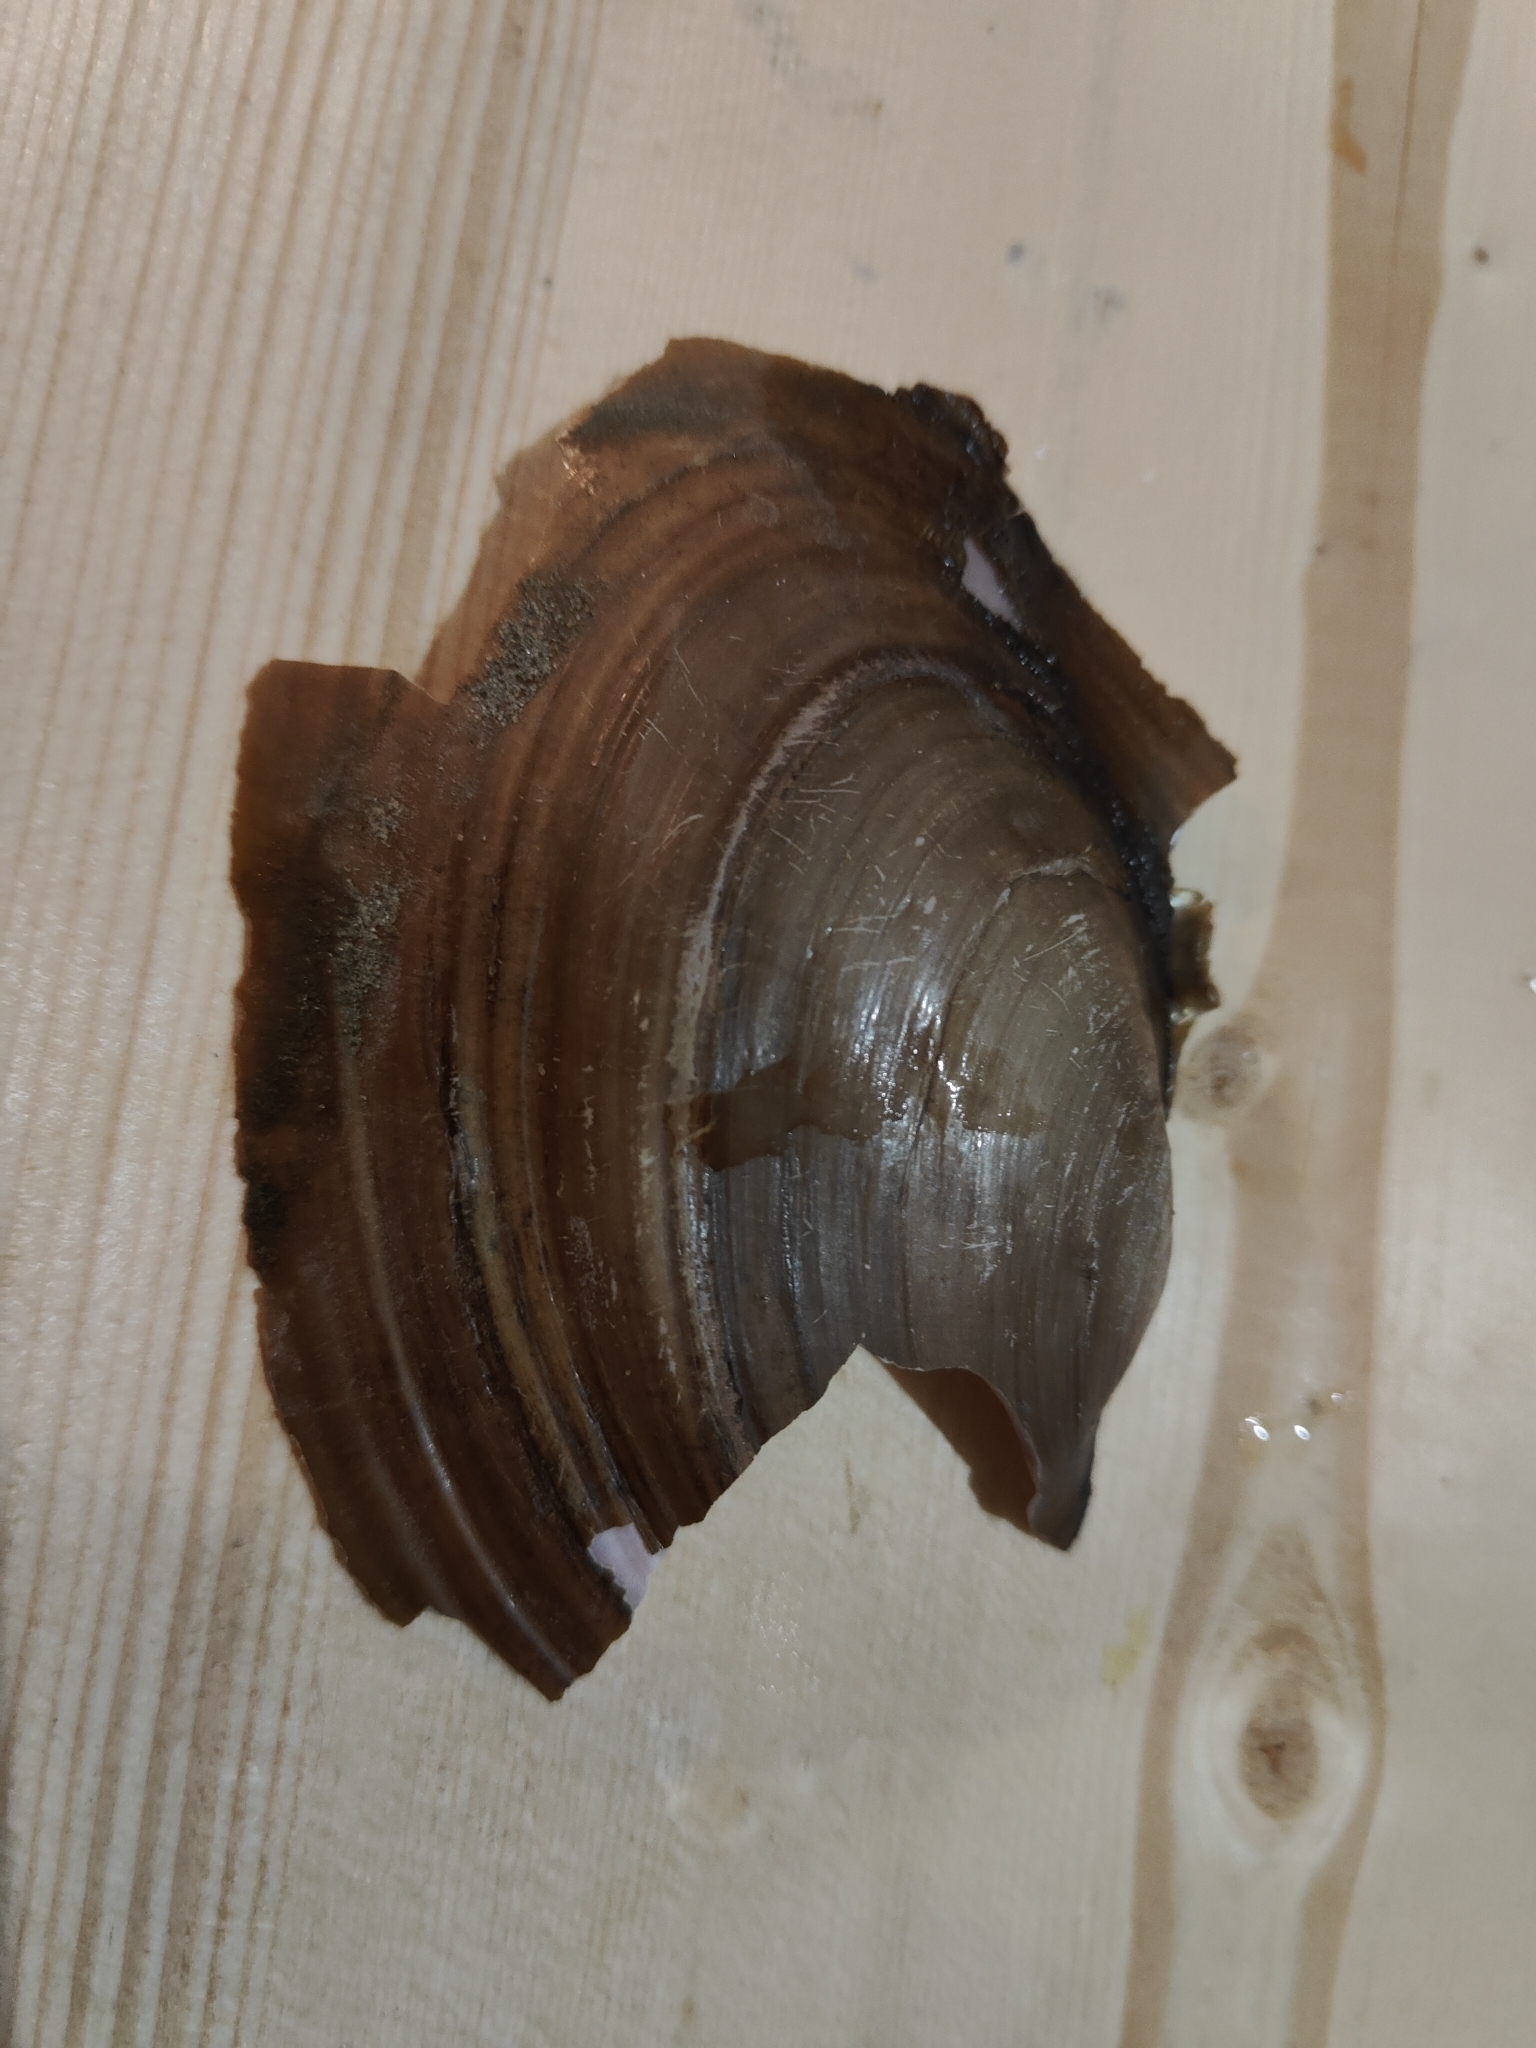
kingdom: Animalia
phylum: Mollusca
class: Bivalvia
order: Unionida
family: Unionidae
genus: Potamilus
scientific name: Potamilus ohiensis
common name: Pink papershell
